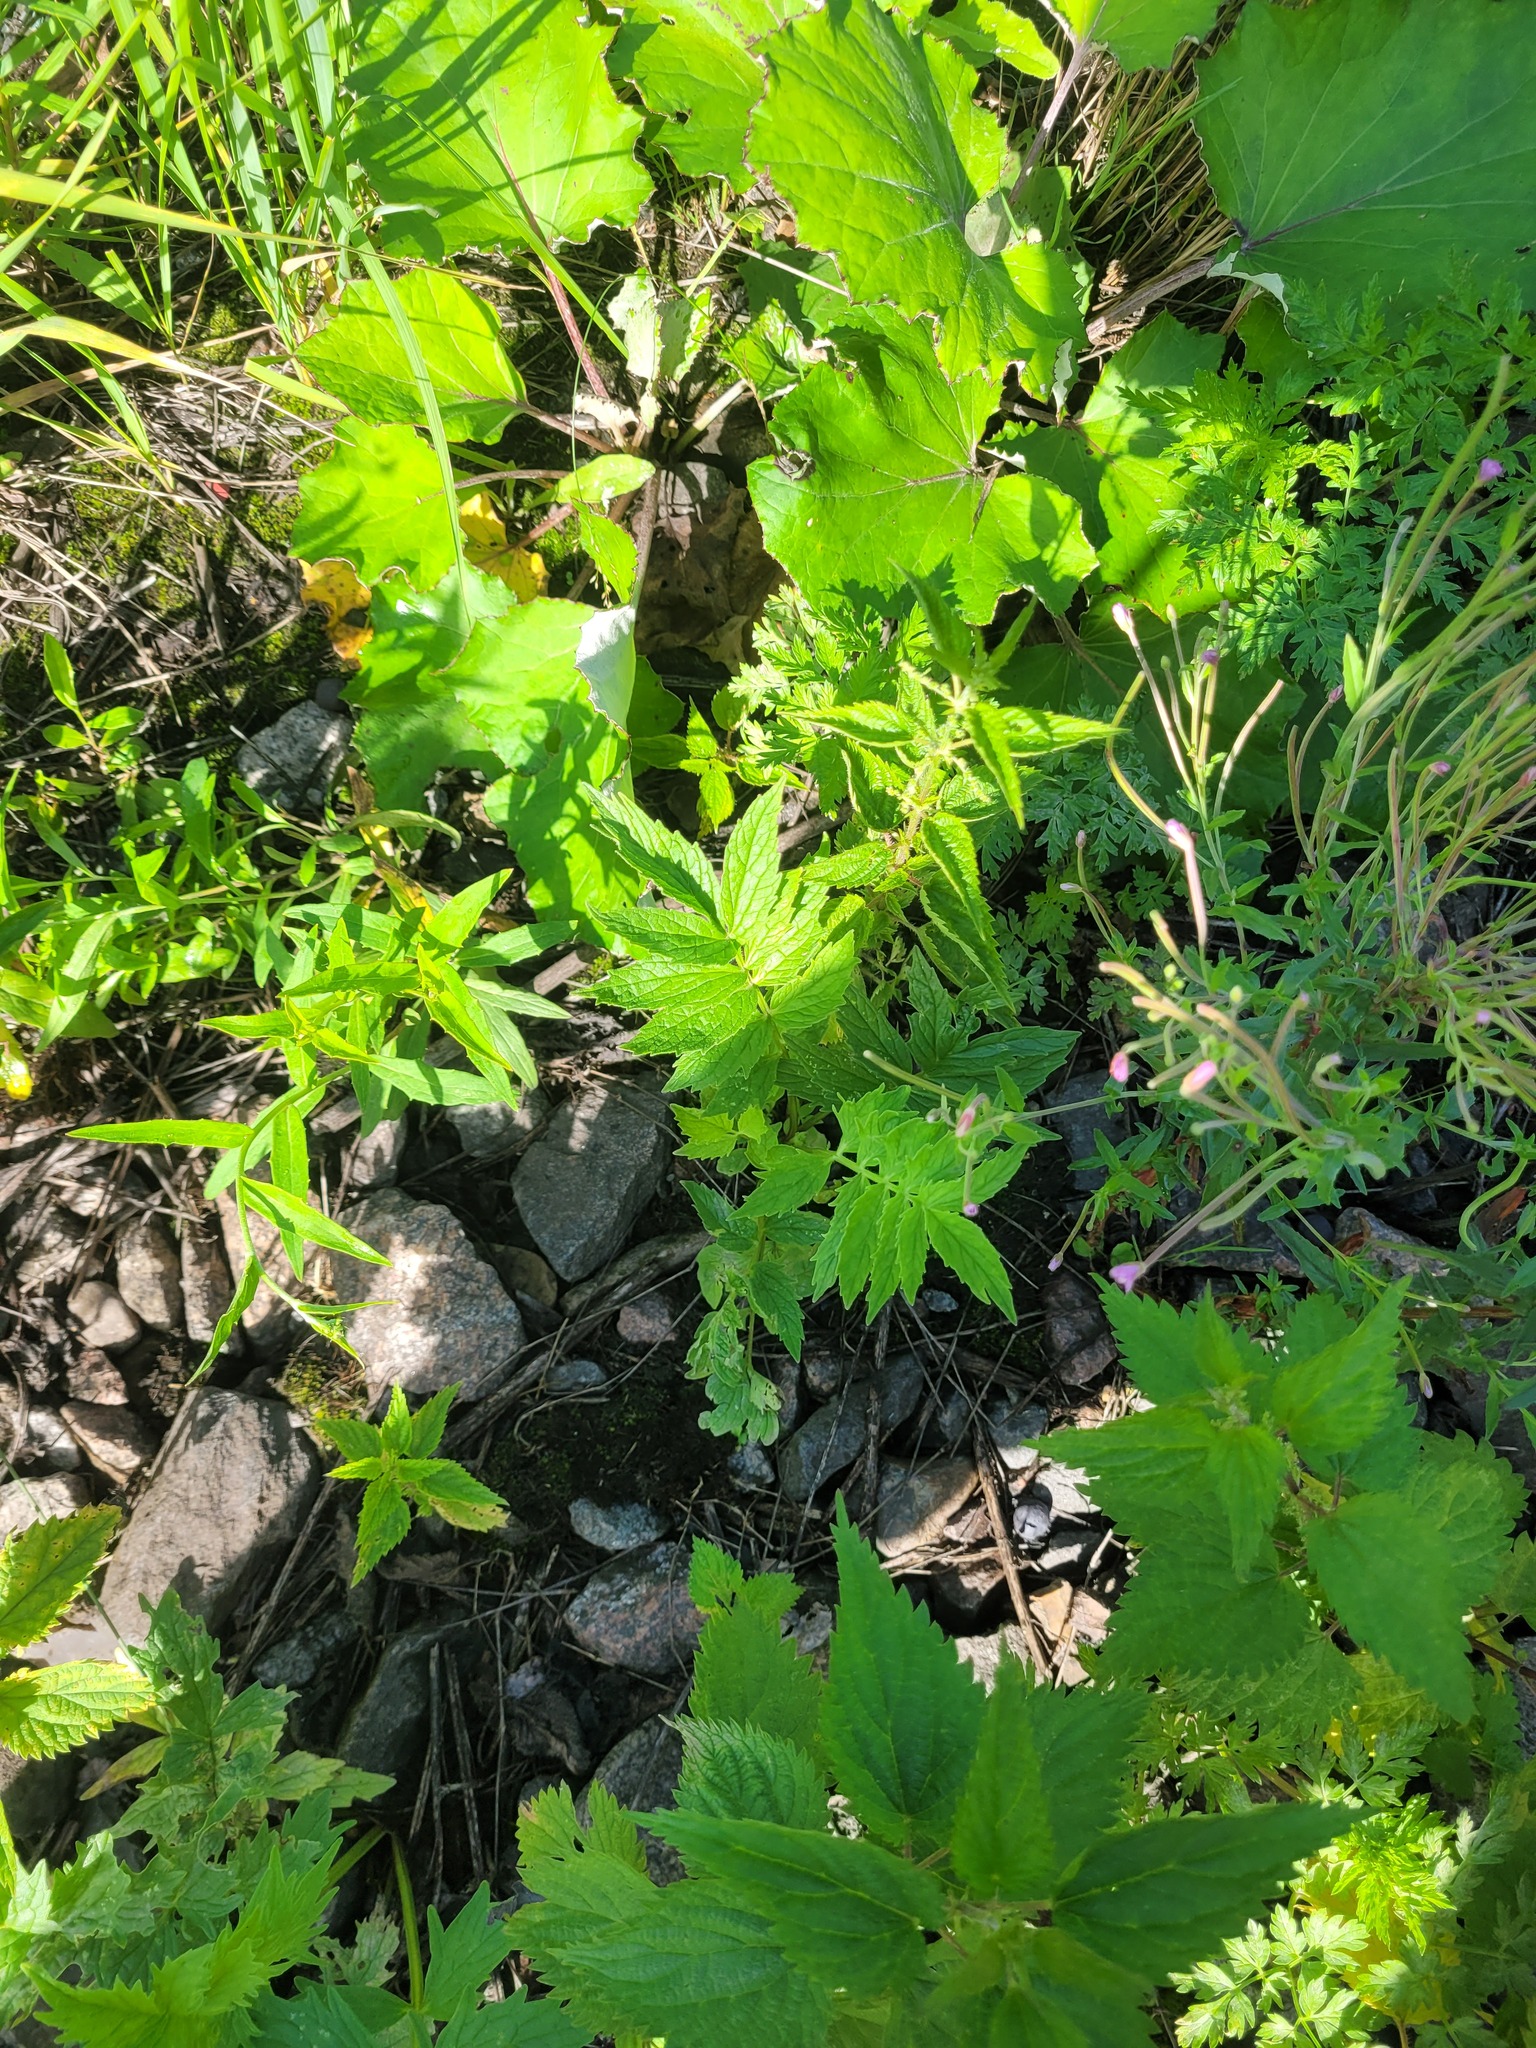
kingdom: Plantae
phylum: Tracheophyta
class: Magnoliopsida
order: Dipsacales
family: Caprifoliaceae
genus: Valeriana
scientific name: Valeriana officinalis
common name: Common valerian
